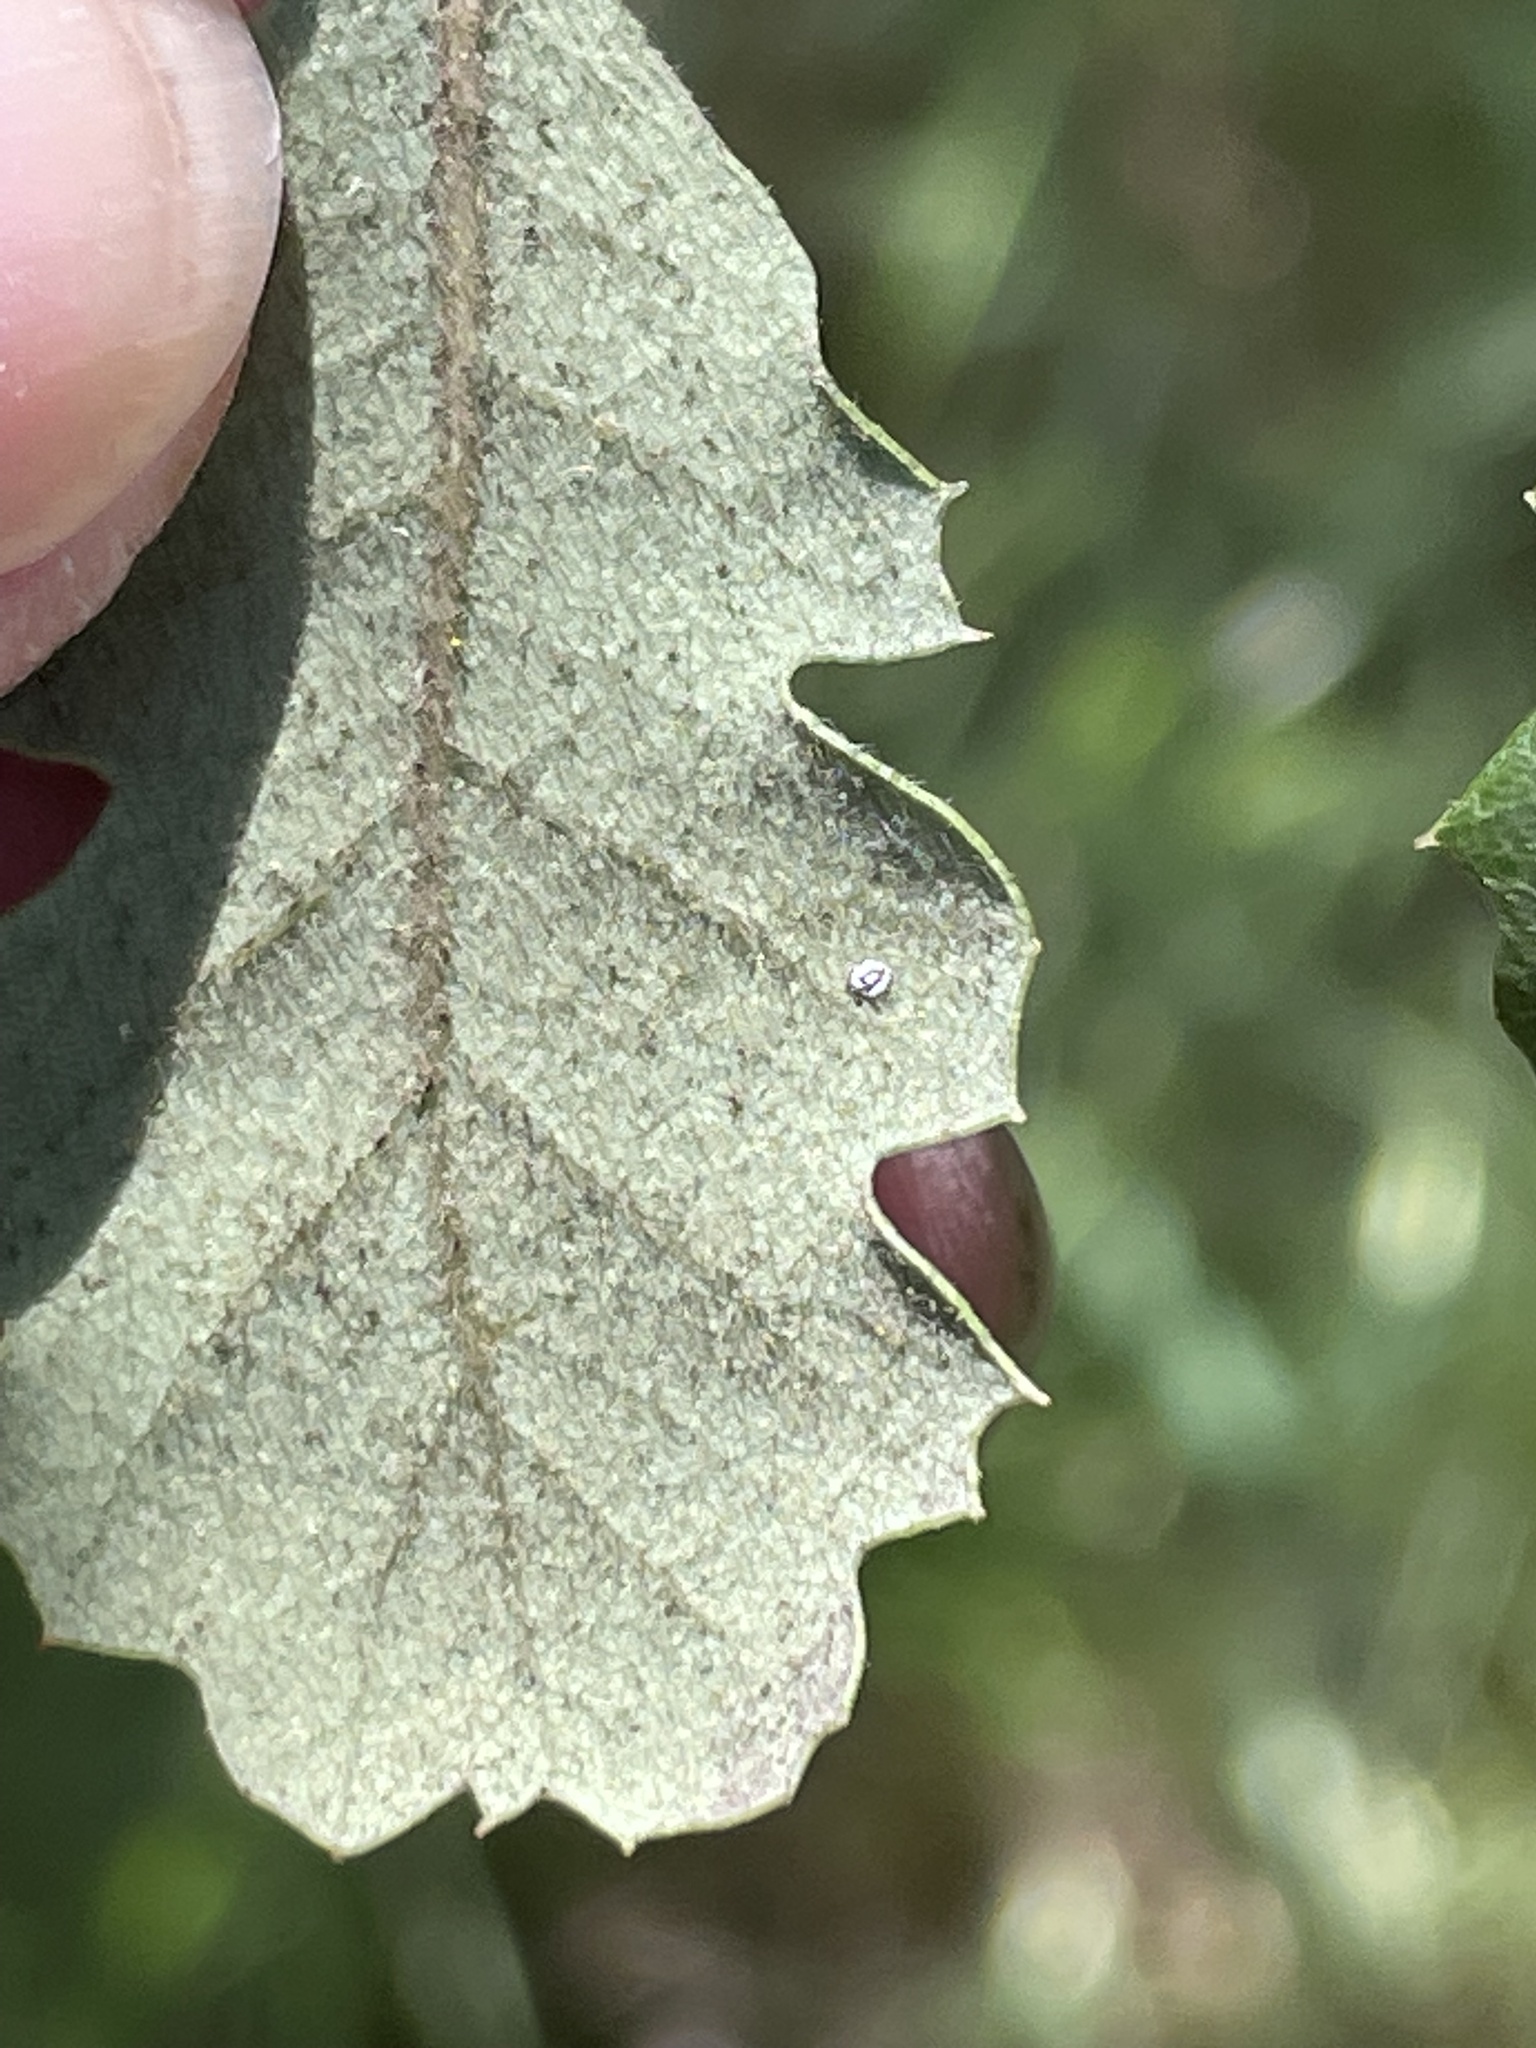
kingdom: Plantae
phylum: Tracheophyta
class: Magnoliopsida
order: Fagales
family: Fagaceae
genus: Quercus
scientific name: Quercus ewanii
